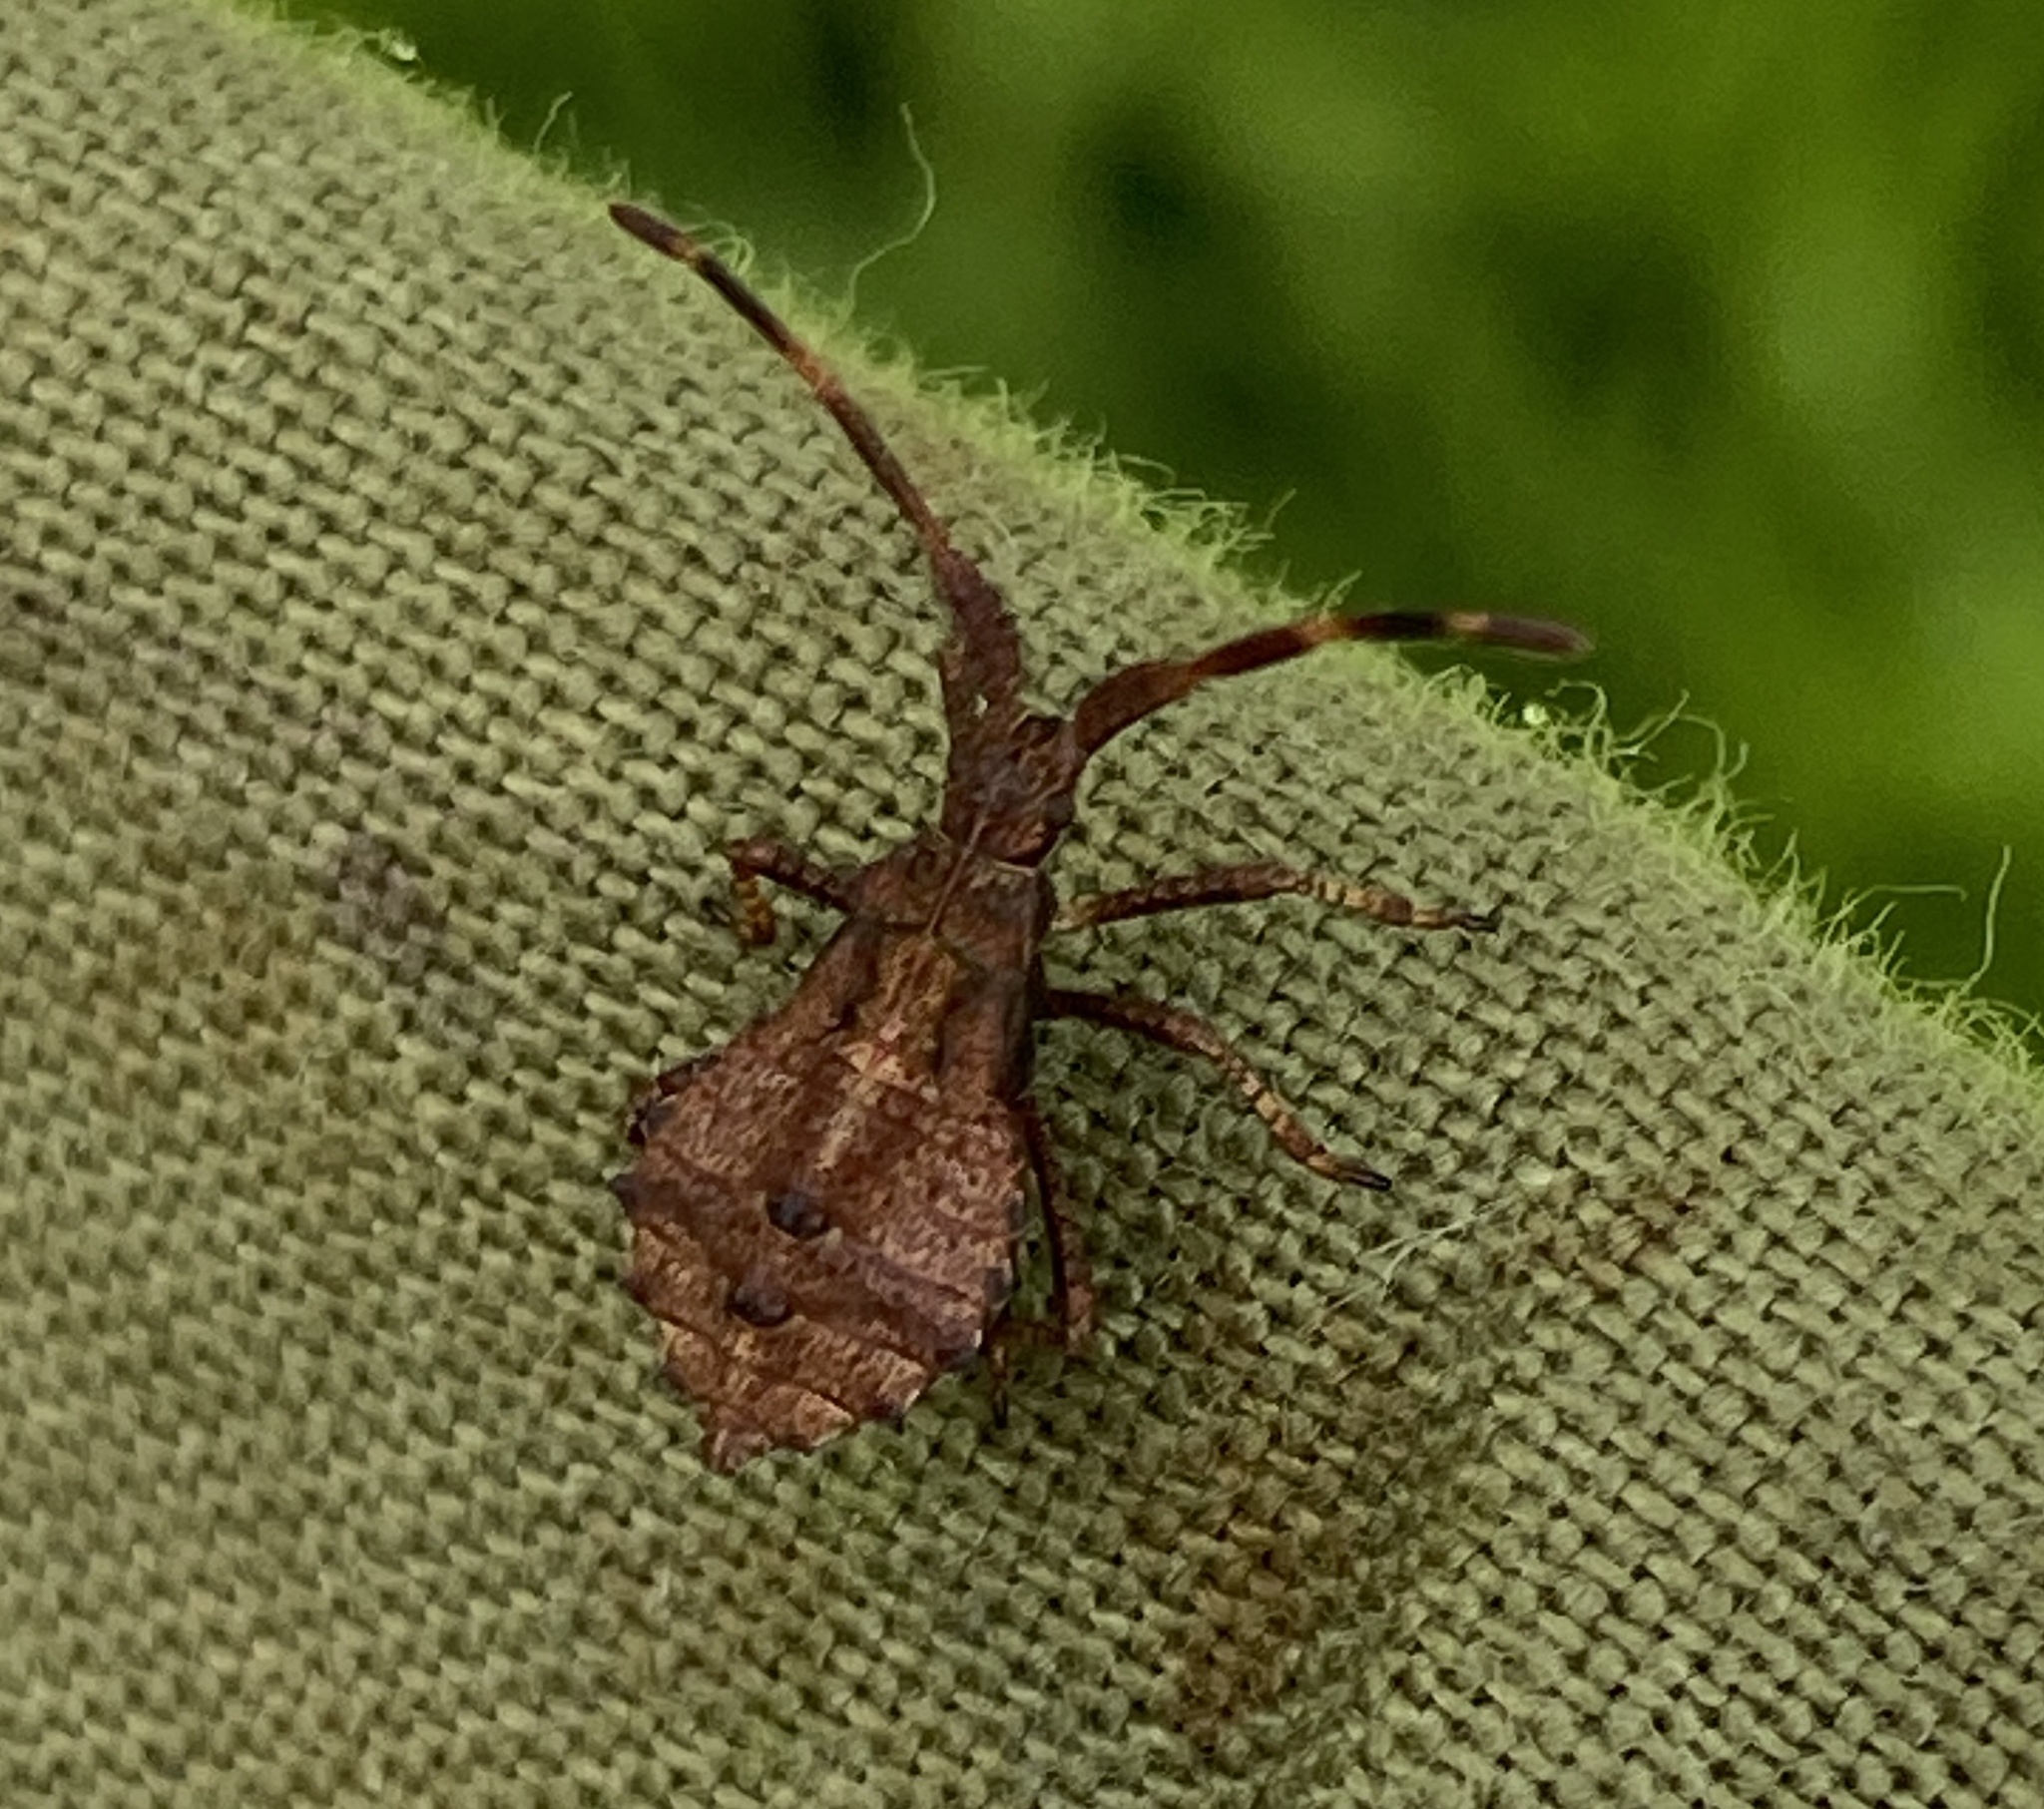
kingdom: Animalia
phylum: Arthropoda
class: Insecta
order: Hemiptera
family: Coreidae
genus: Coreus
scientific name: Coreus marginatus
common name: Dock bug
